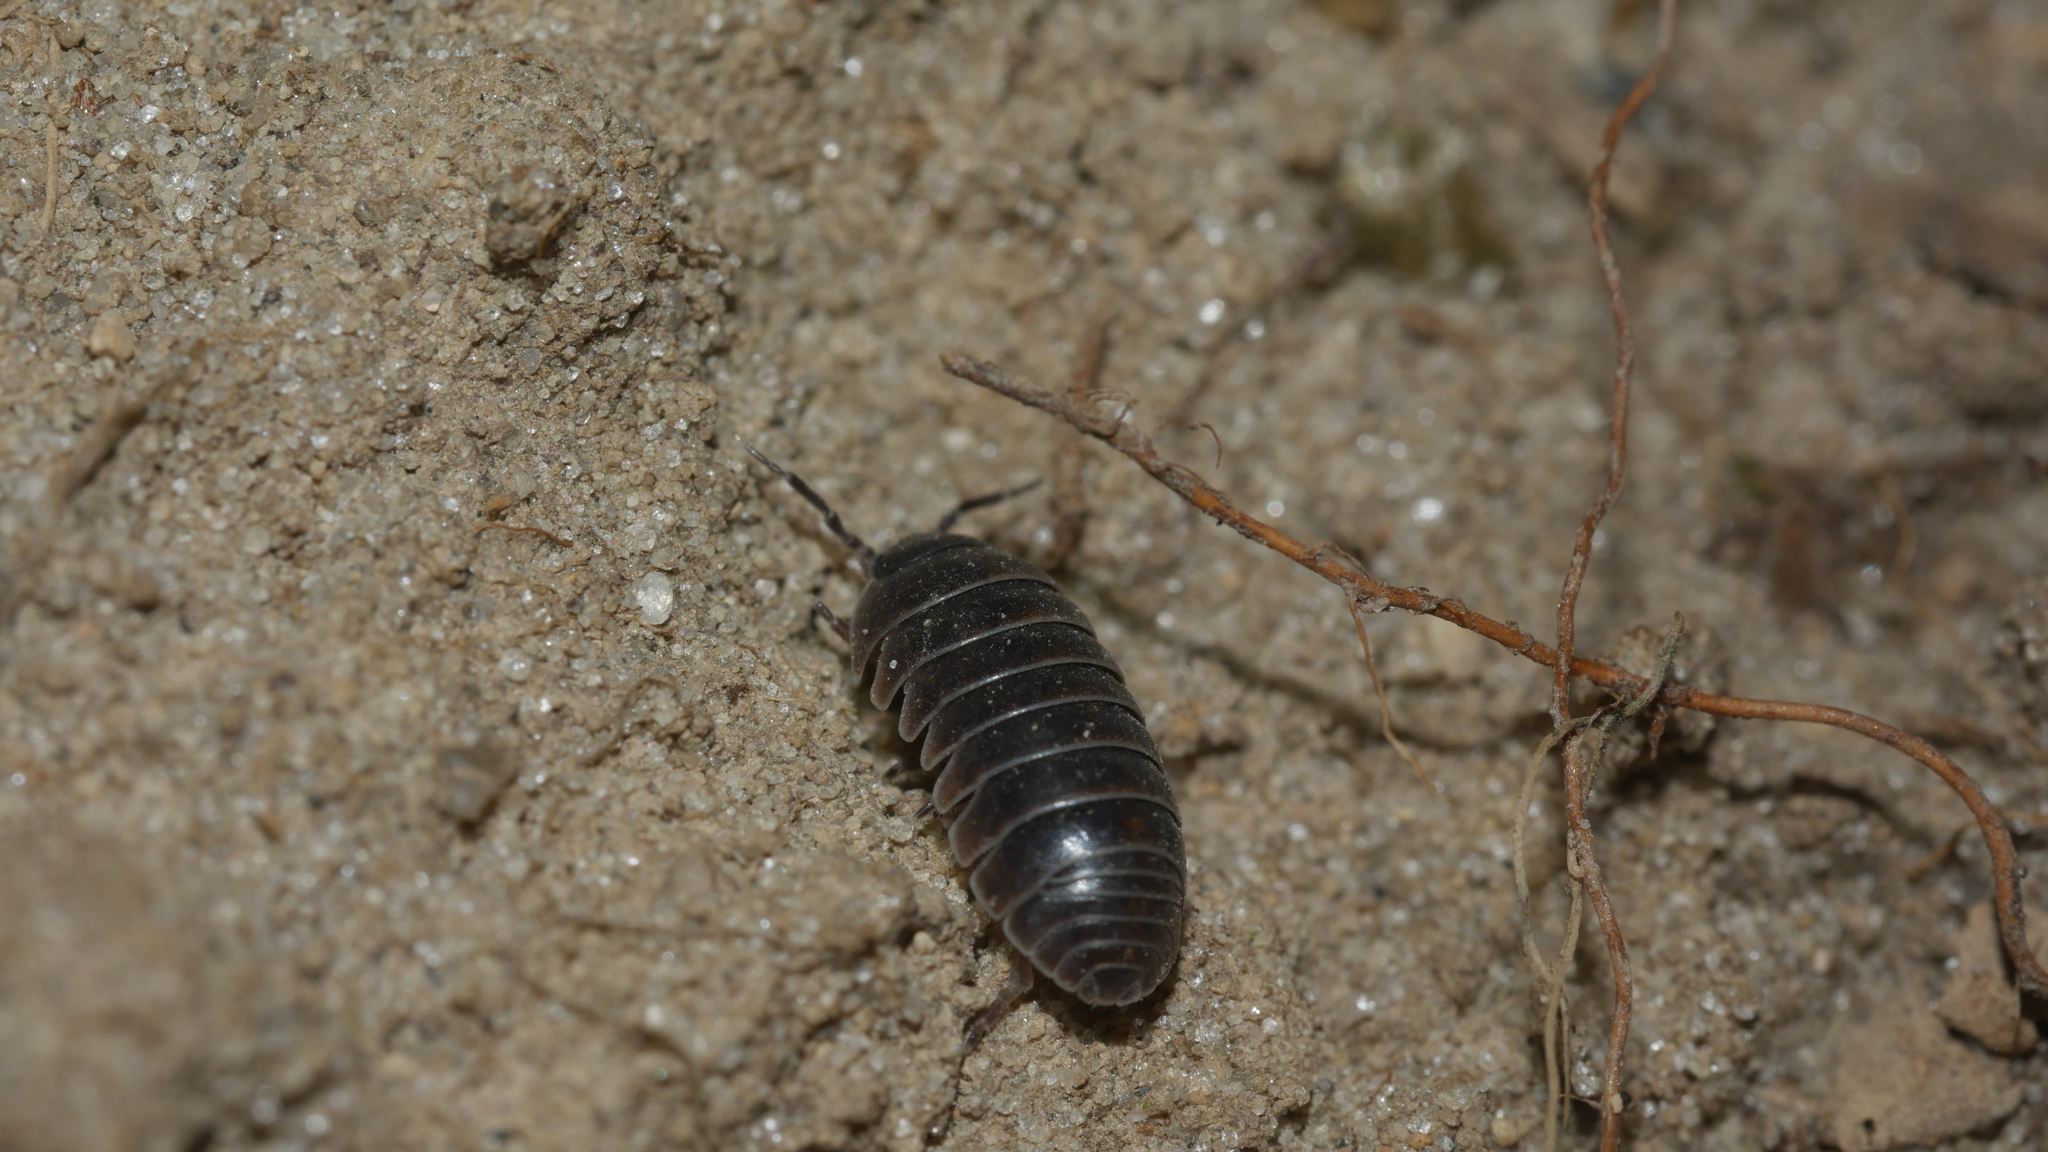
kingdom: Animalia
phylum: Arthropoda
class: Malacostraca
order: Isopoda
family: Armadillidiidae
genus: Armadillidium
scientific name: Armadillidium vulgare
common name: Common pill woodlouse
